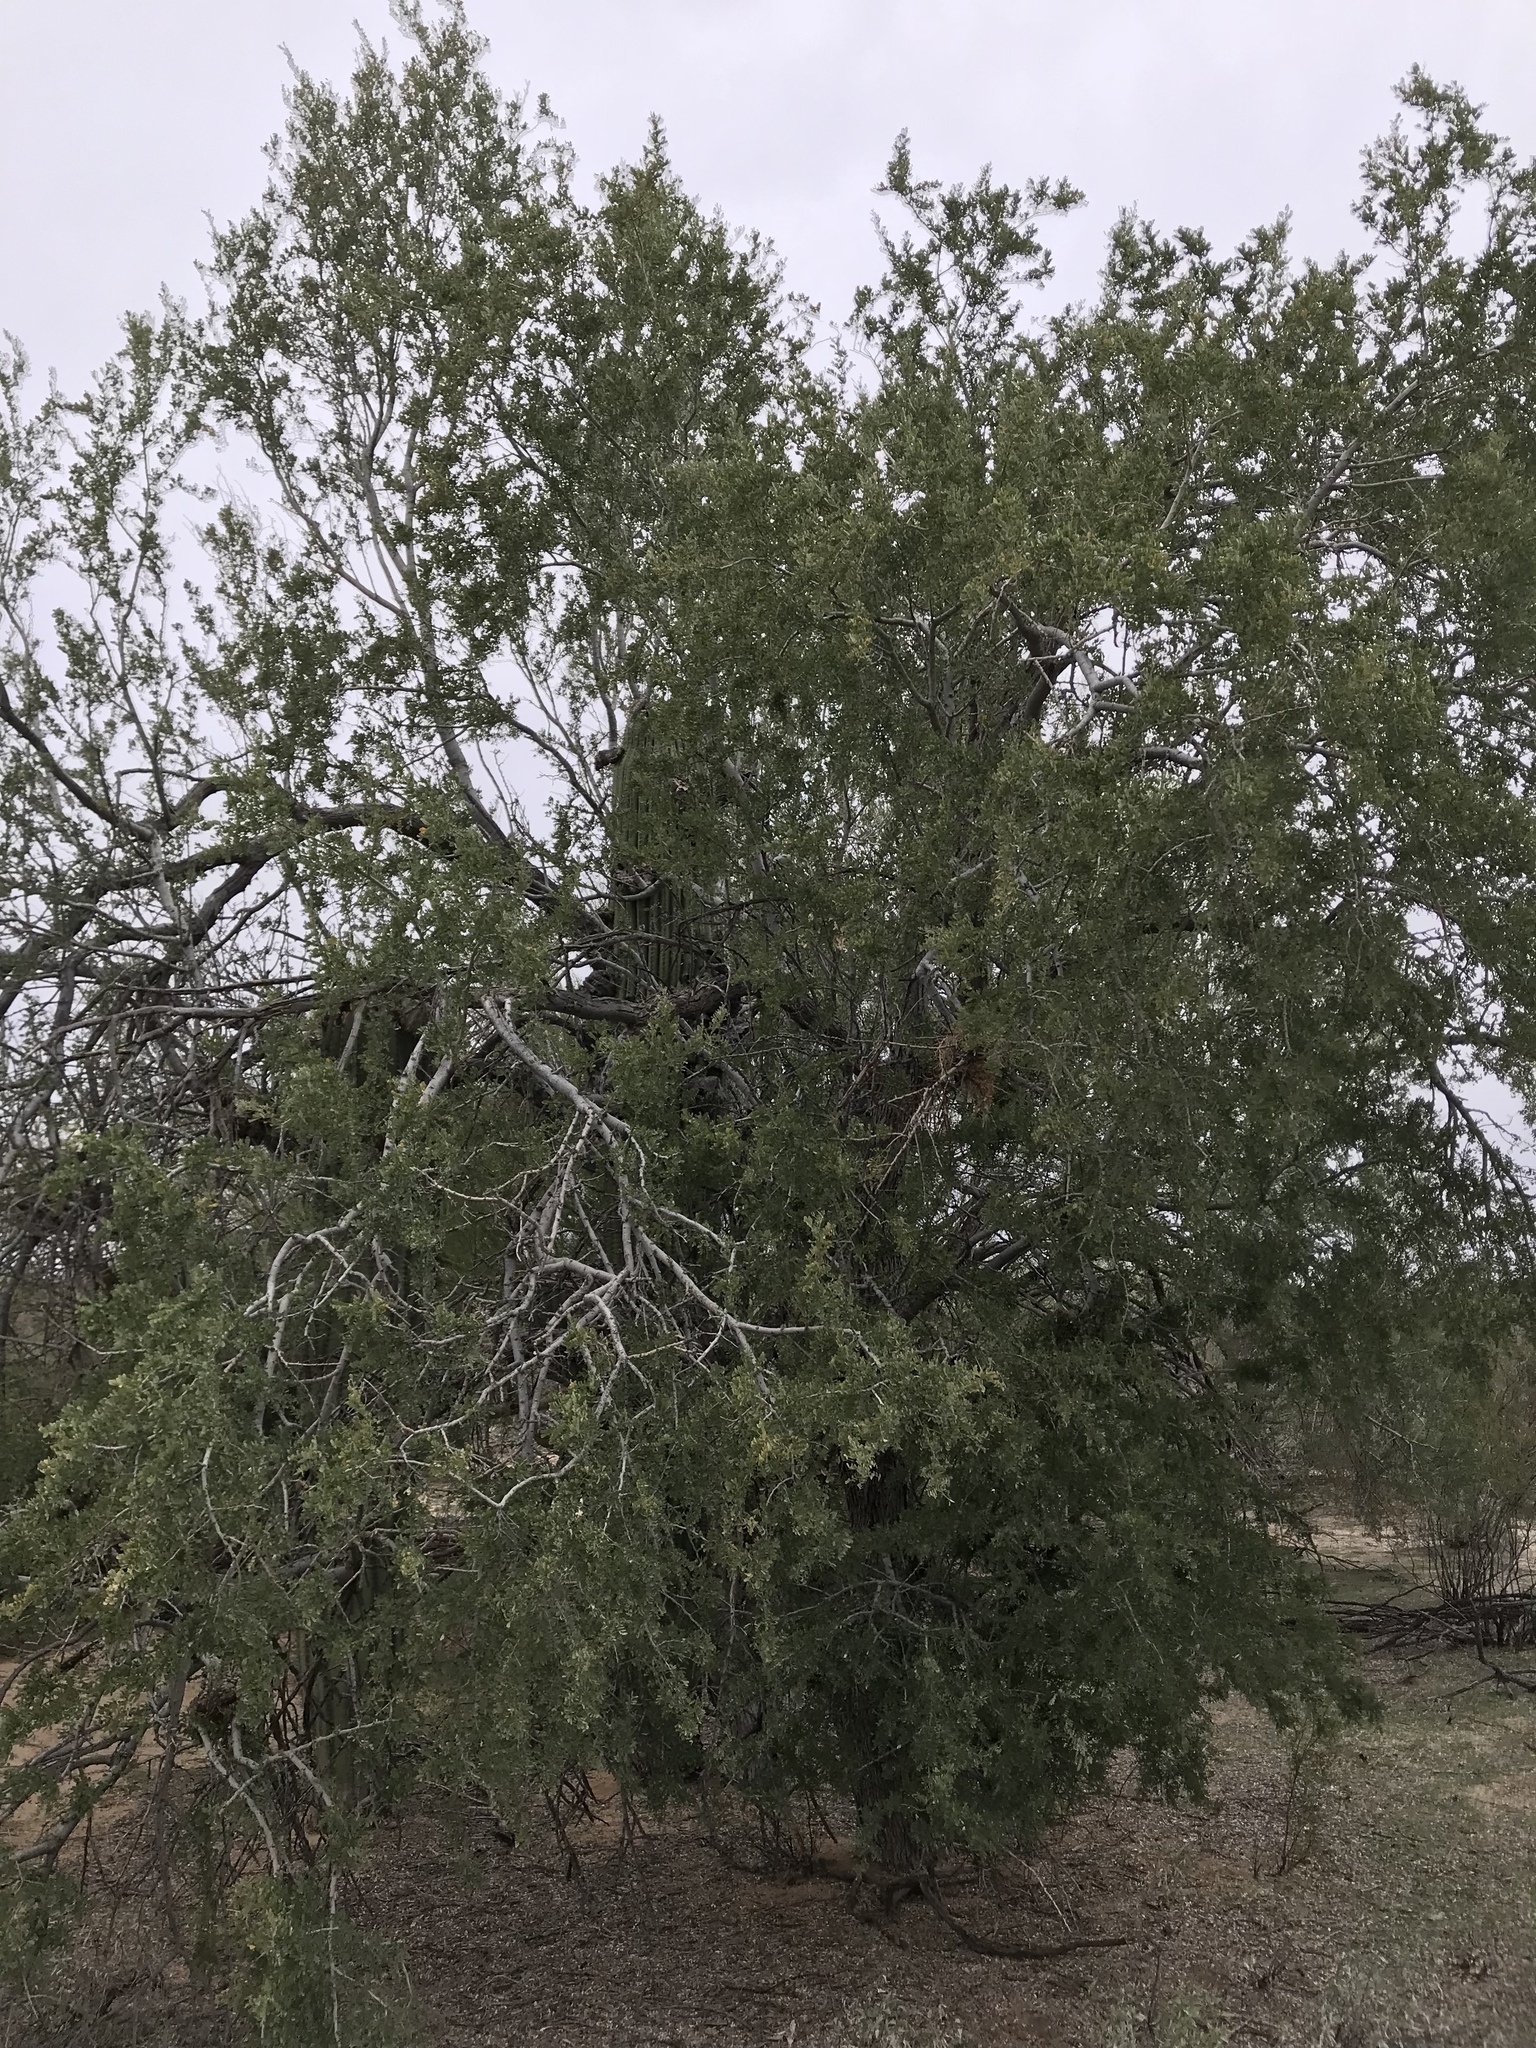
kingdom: Plantae
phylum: Tracheophyta
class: Magnoliopsida
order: Fabales
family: Fabaceae
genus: Olneya
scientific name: Olneya tesota
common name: Desert ironwood
